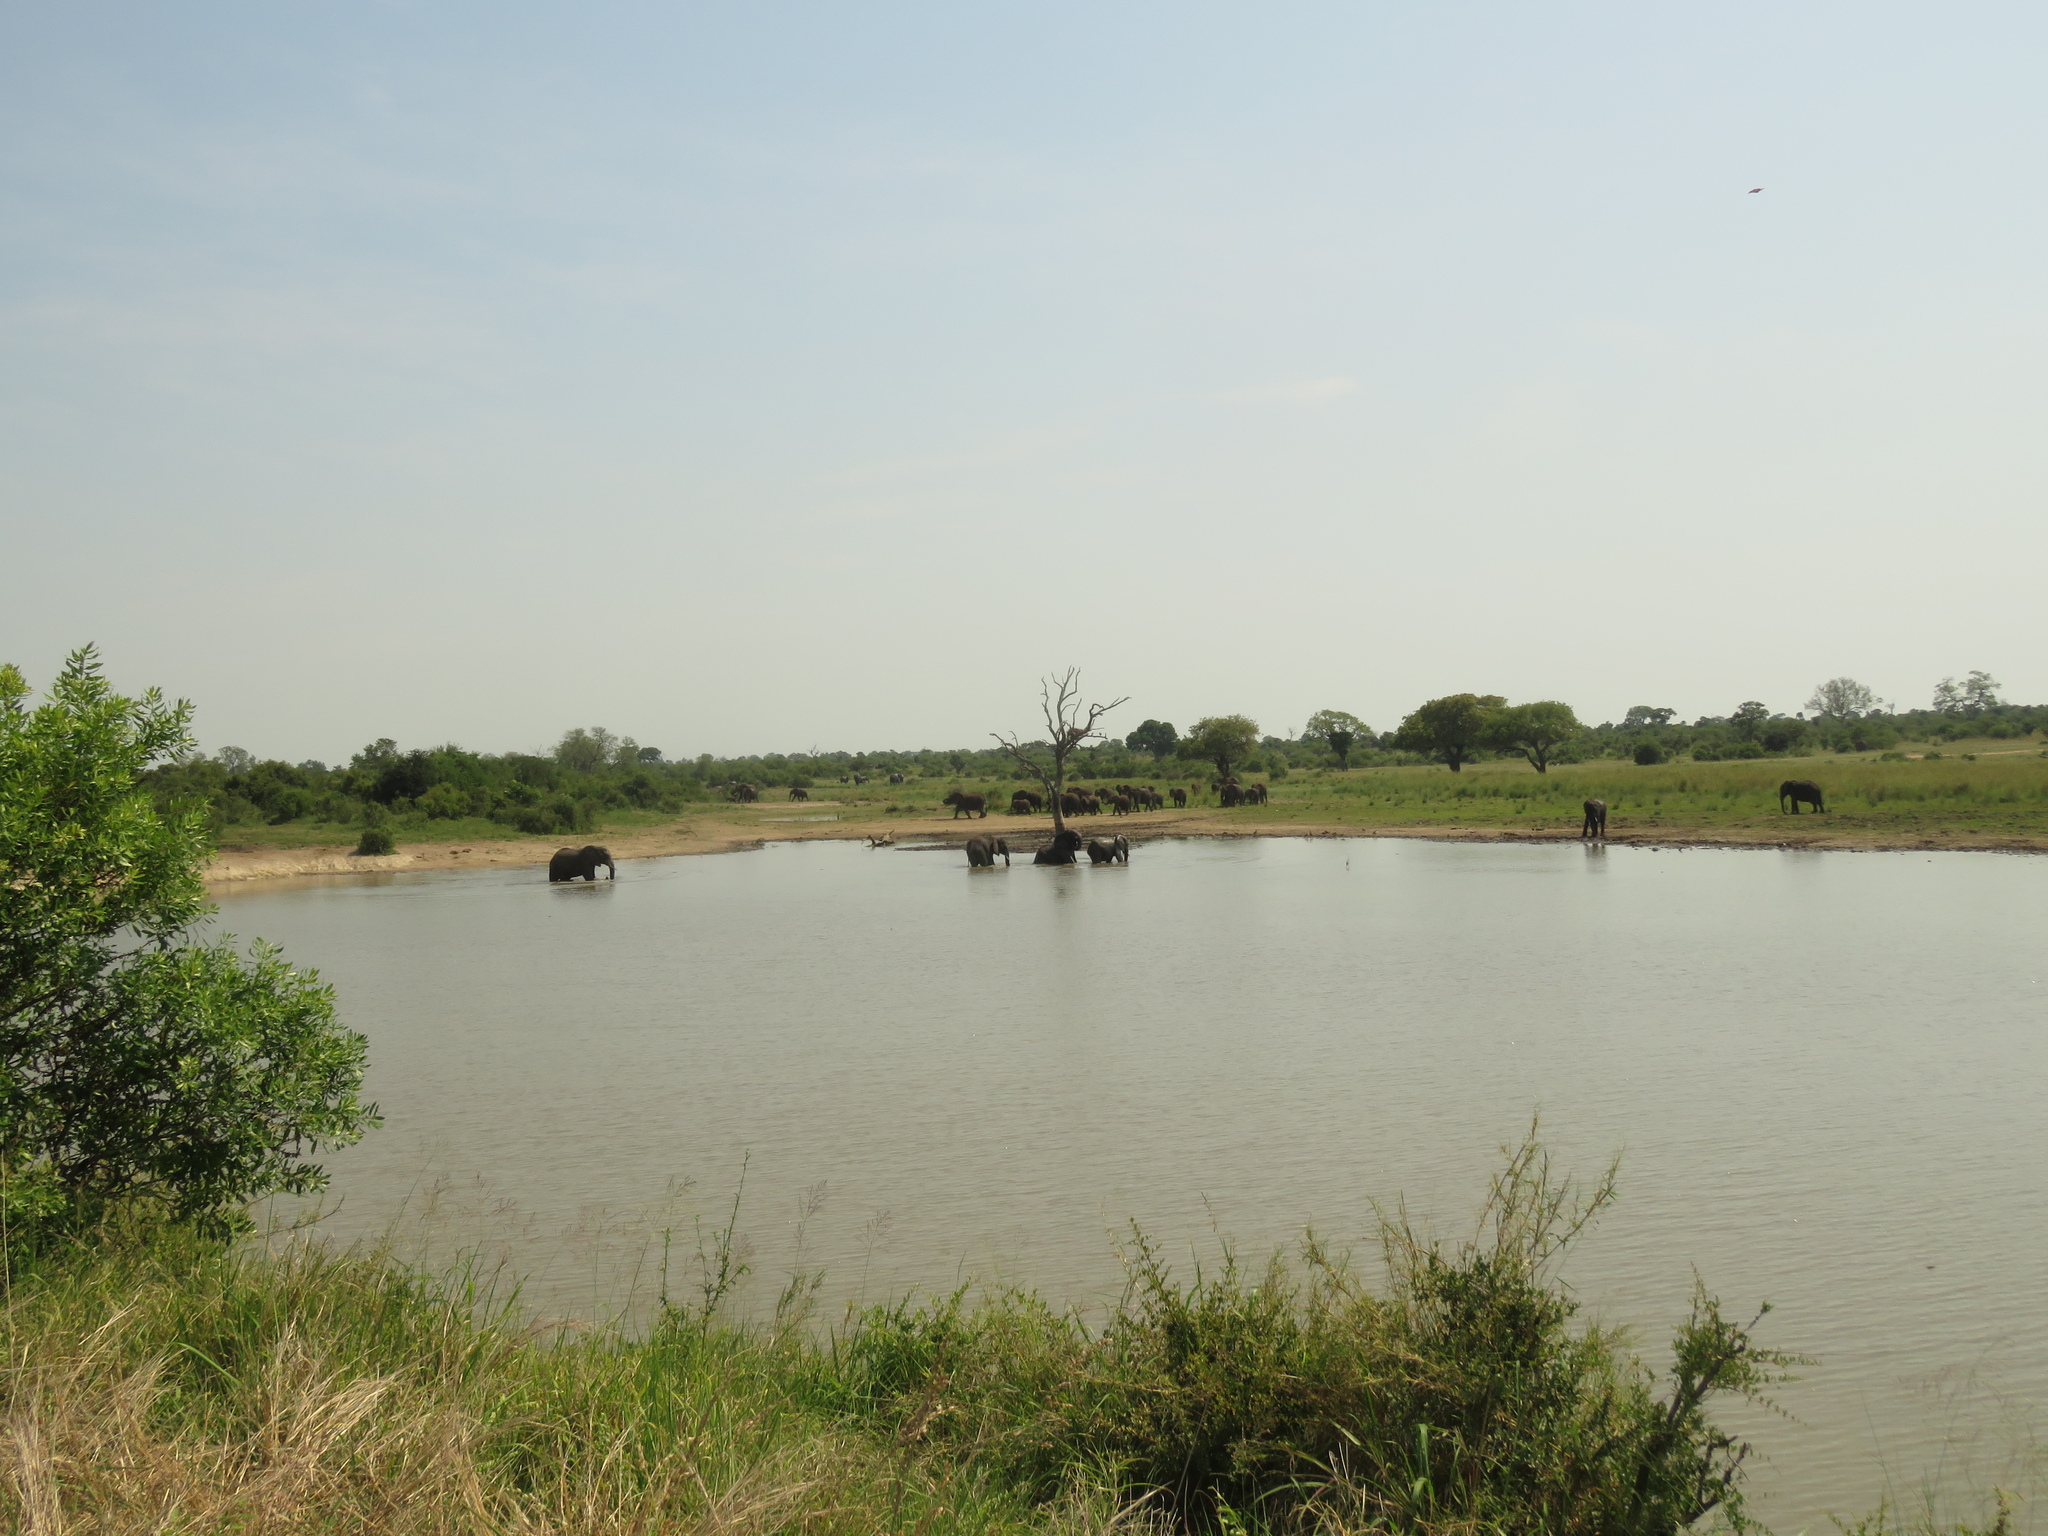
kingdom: Animalia
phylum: Chordata
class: Mammalia
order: Proboscidea
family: Elephantidae
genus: Loxodonta
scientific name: Loxodonta africana
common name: African elephant
